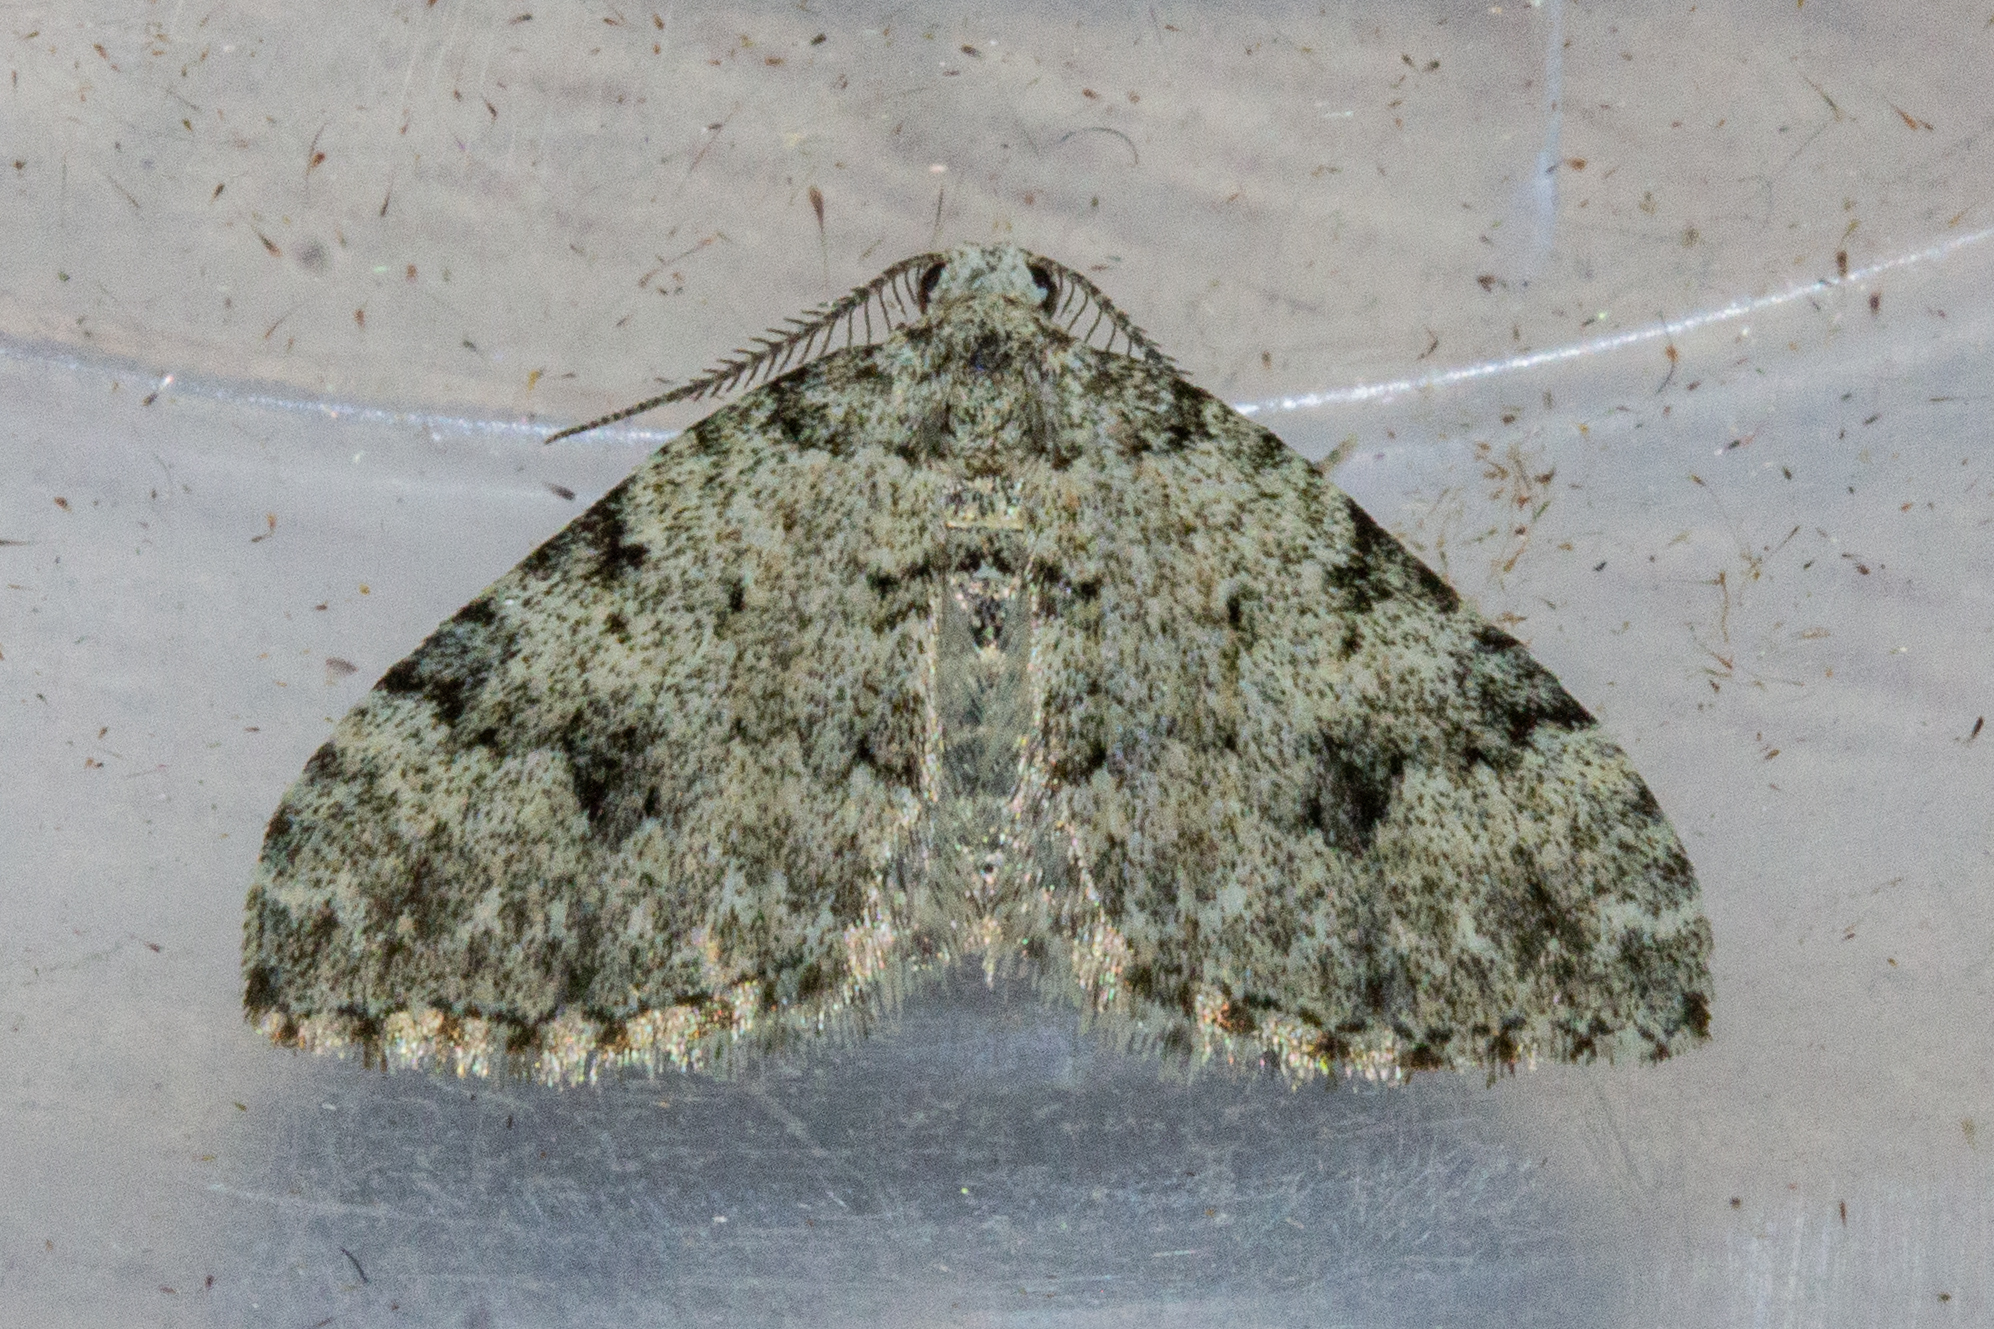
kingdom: Animalia
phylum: Arthropoda
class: Insecta
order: Lepidoptera
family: Geometridae
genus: Helastia
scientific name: Helastia cinerearia
